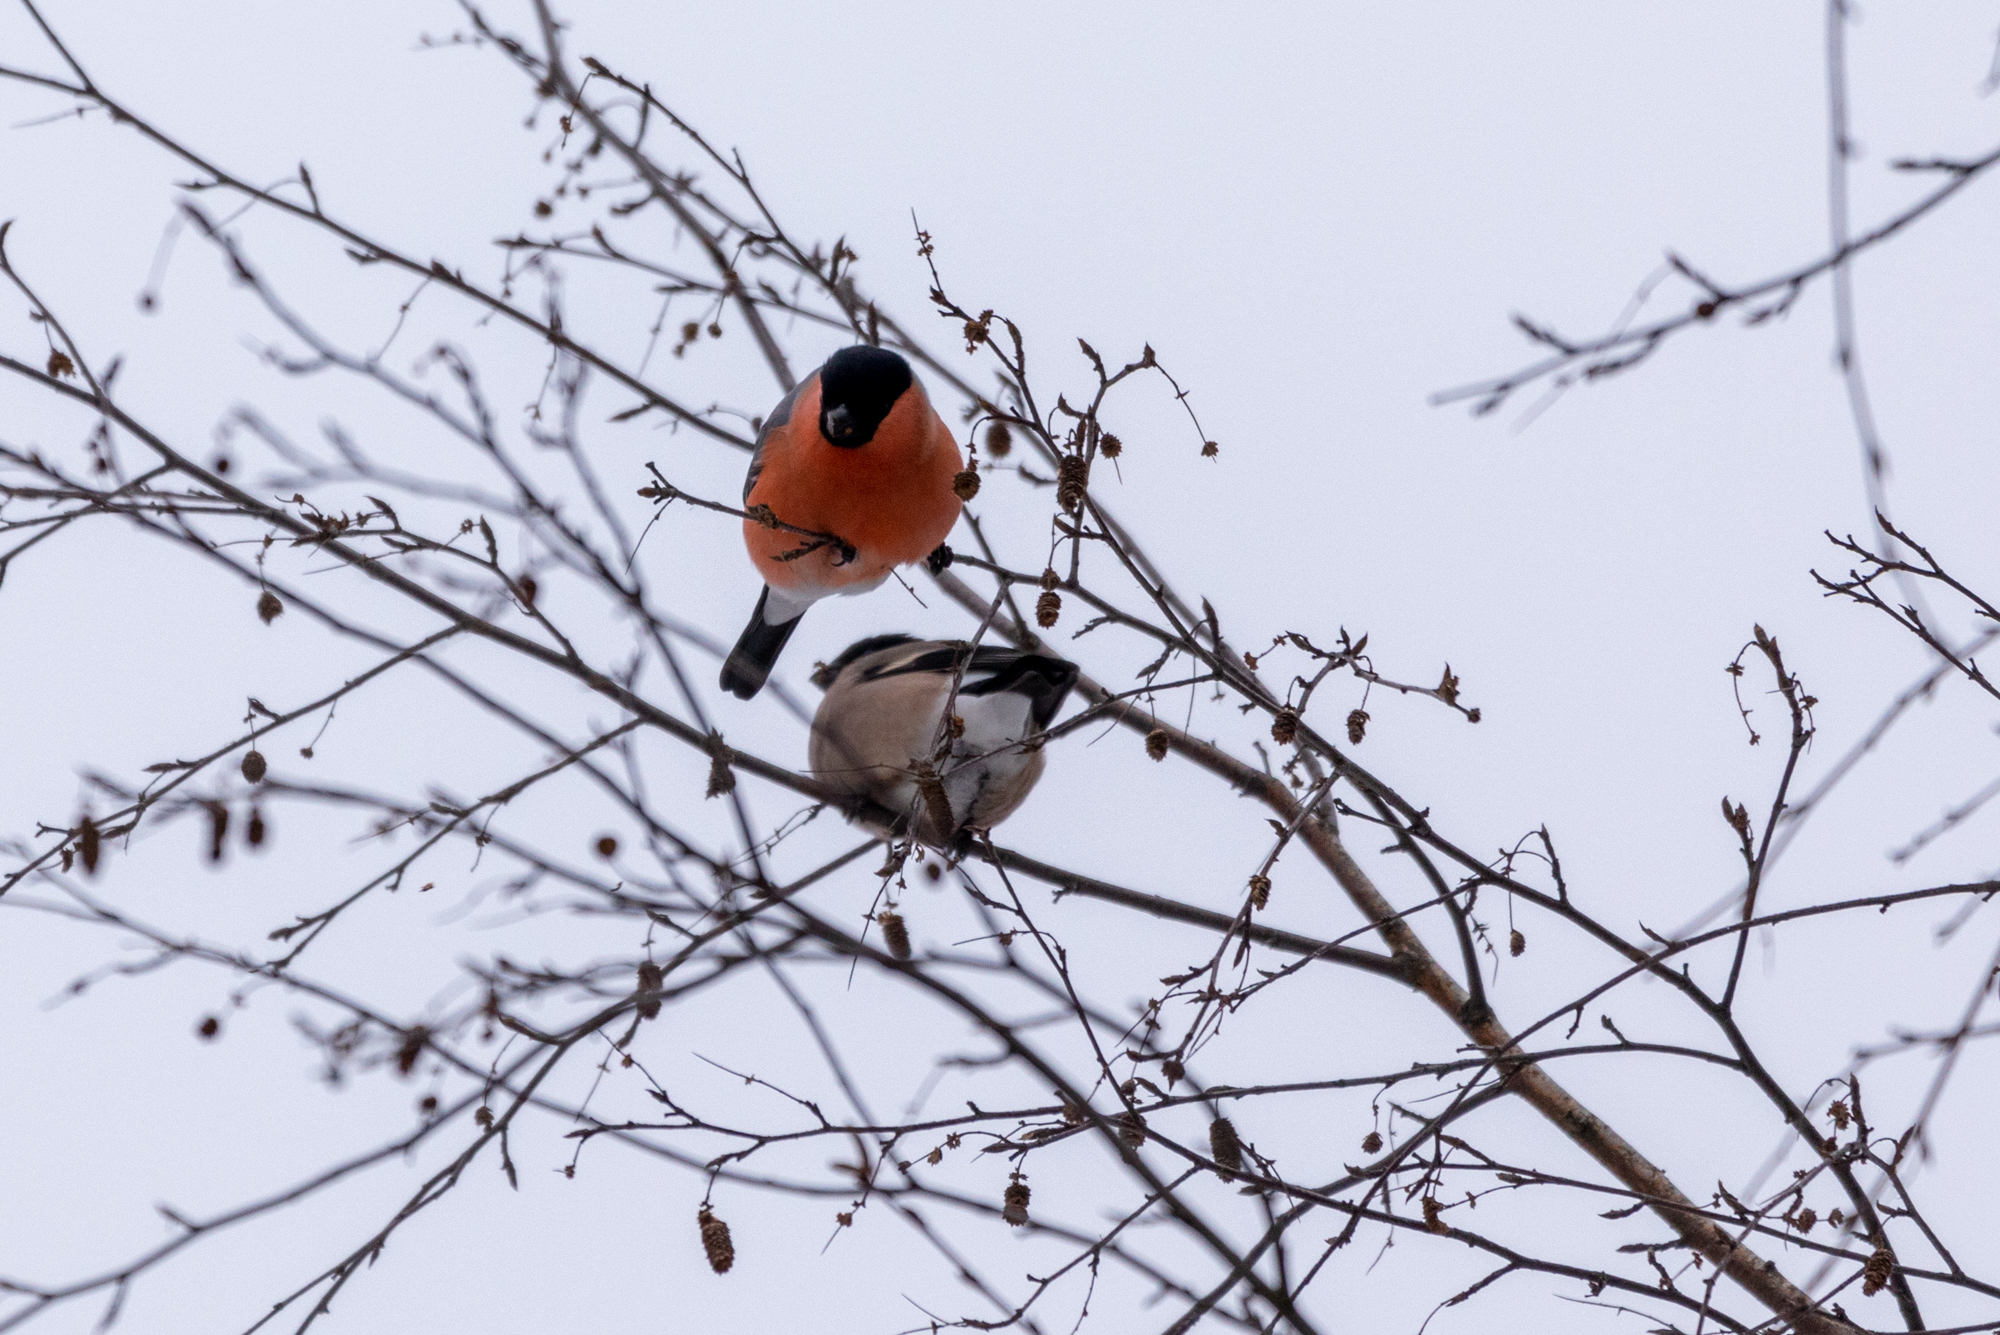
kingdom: Animalia
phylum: Chordata
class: Aves
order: Passeriformes
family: Fringillidae
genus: Pyrrhula
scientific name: Pyrrhula pyrrhula
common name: Eurasian bullfinch
